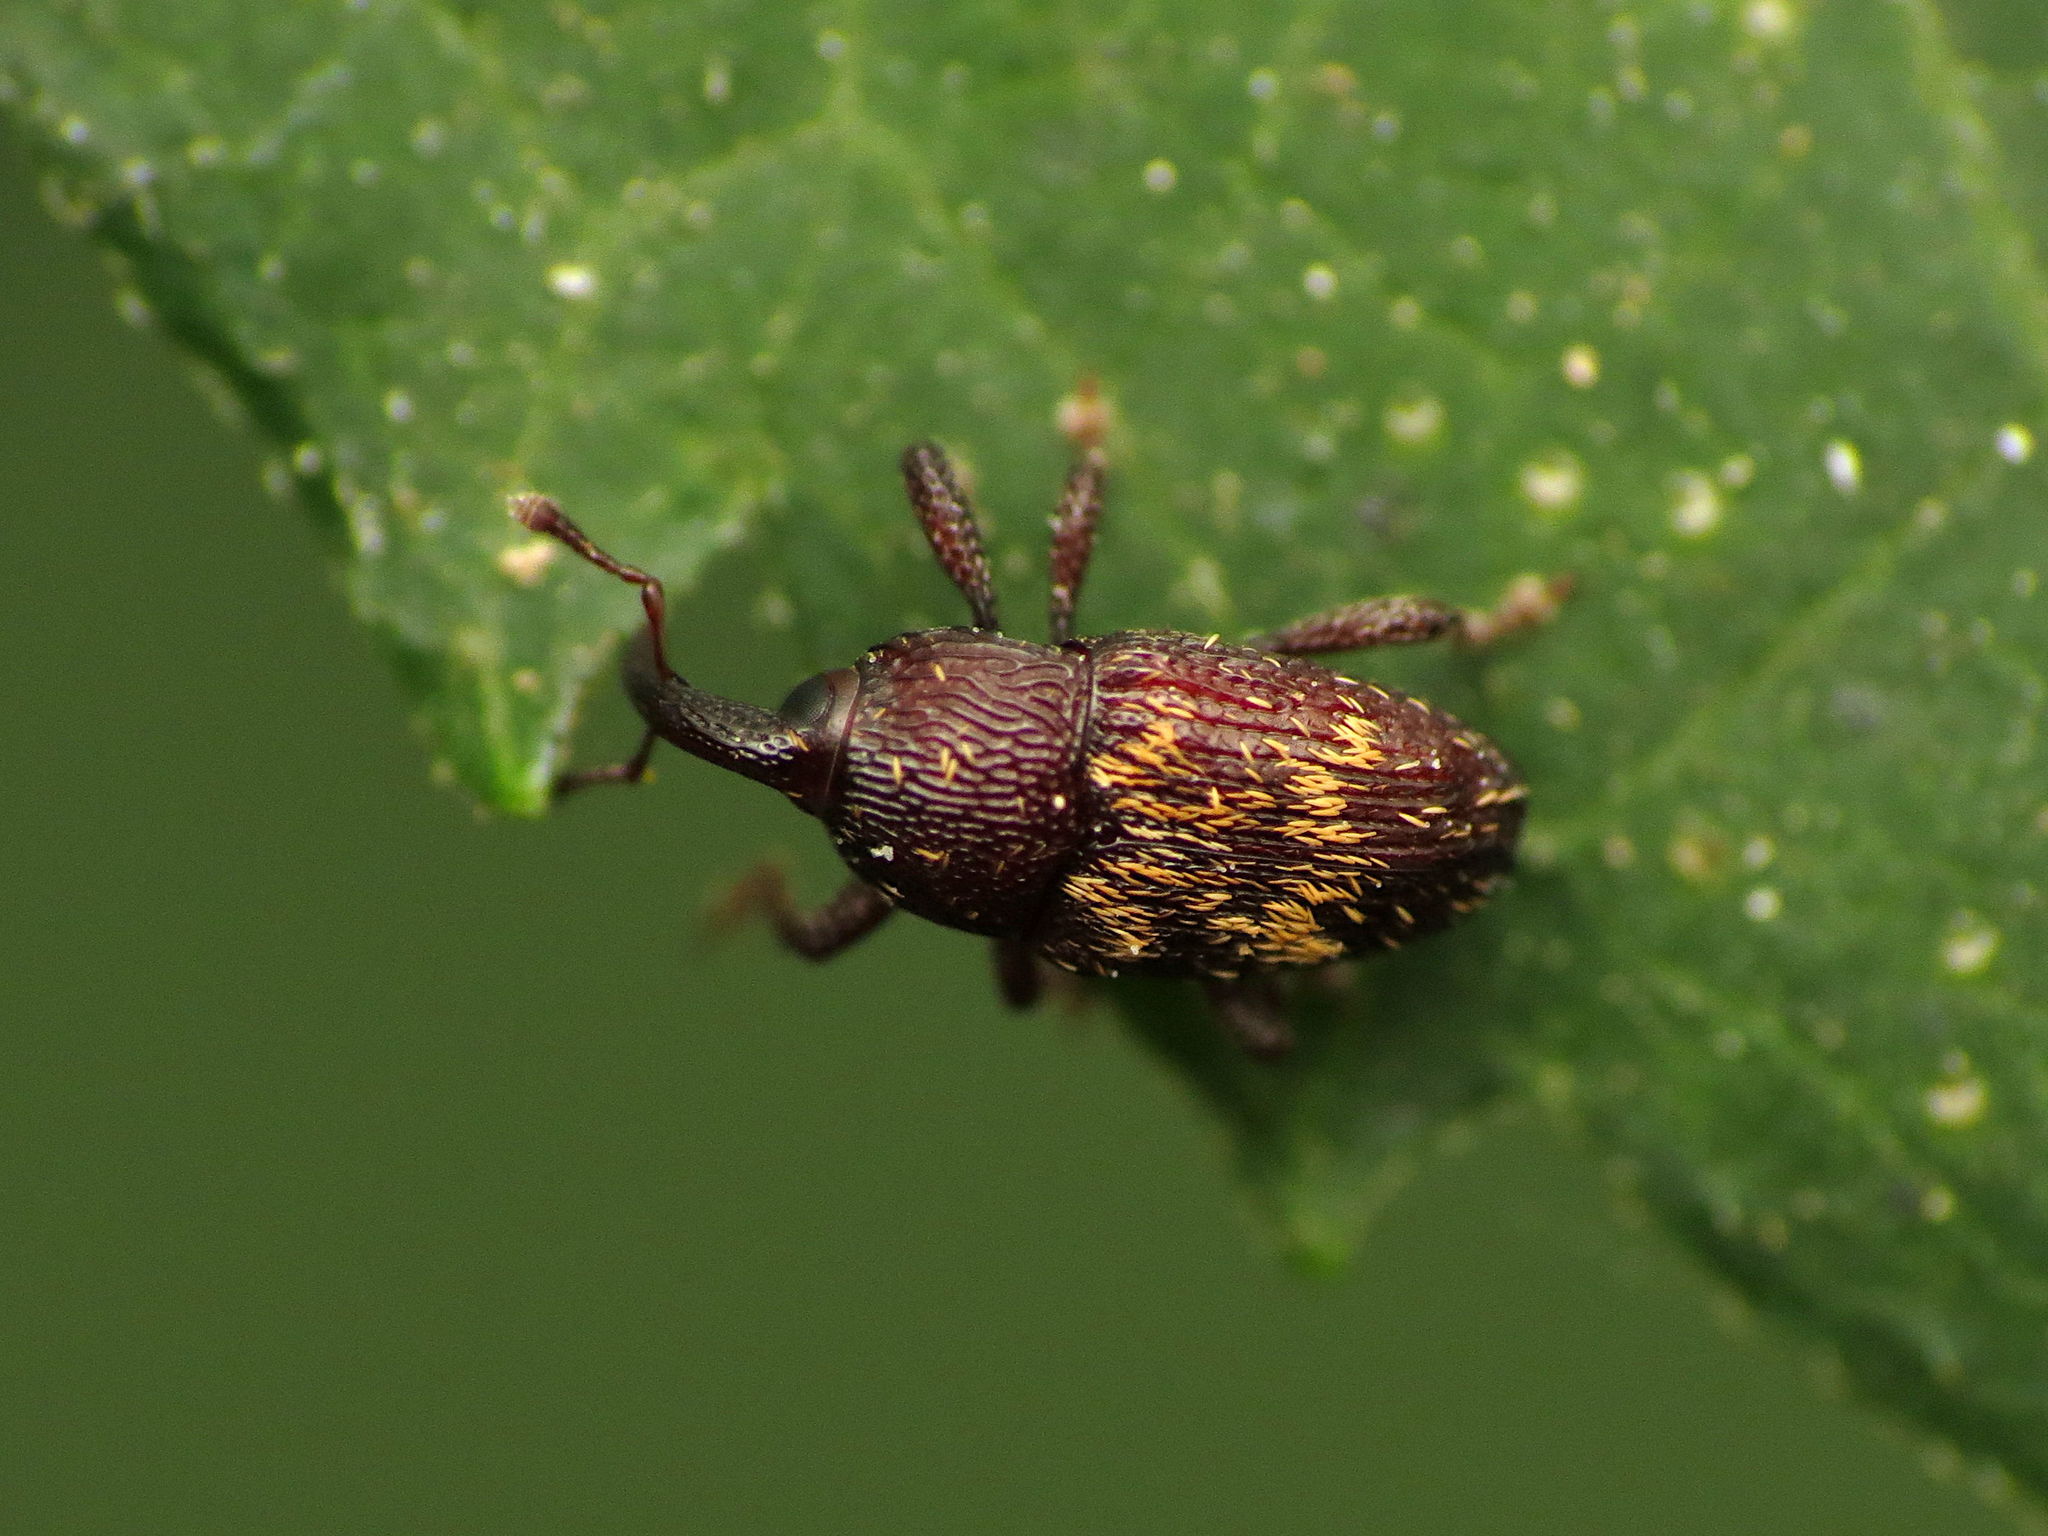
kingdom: Animalia
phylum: Arthropoda
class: Insecta
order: Coleoptera
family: Curculionidae
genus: Glyptobaris
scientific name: Glyptobaris lecontei
